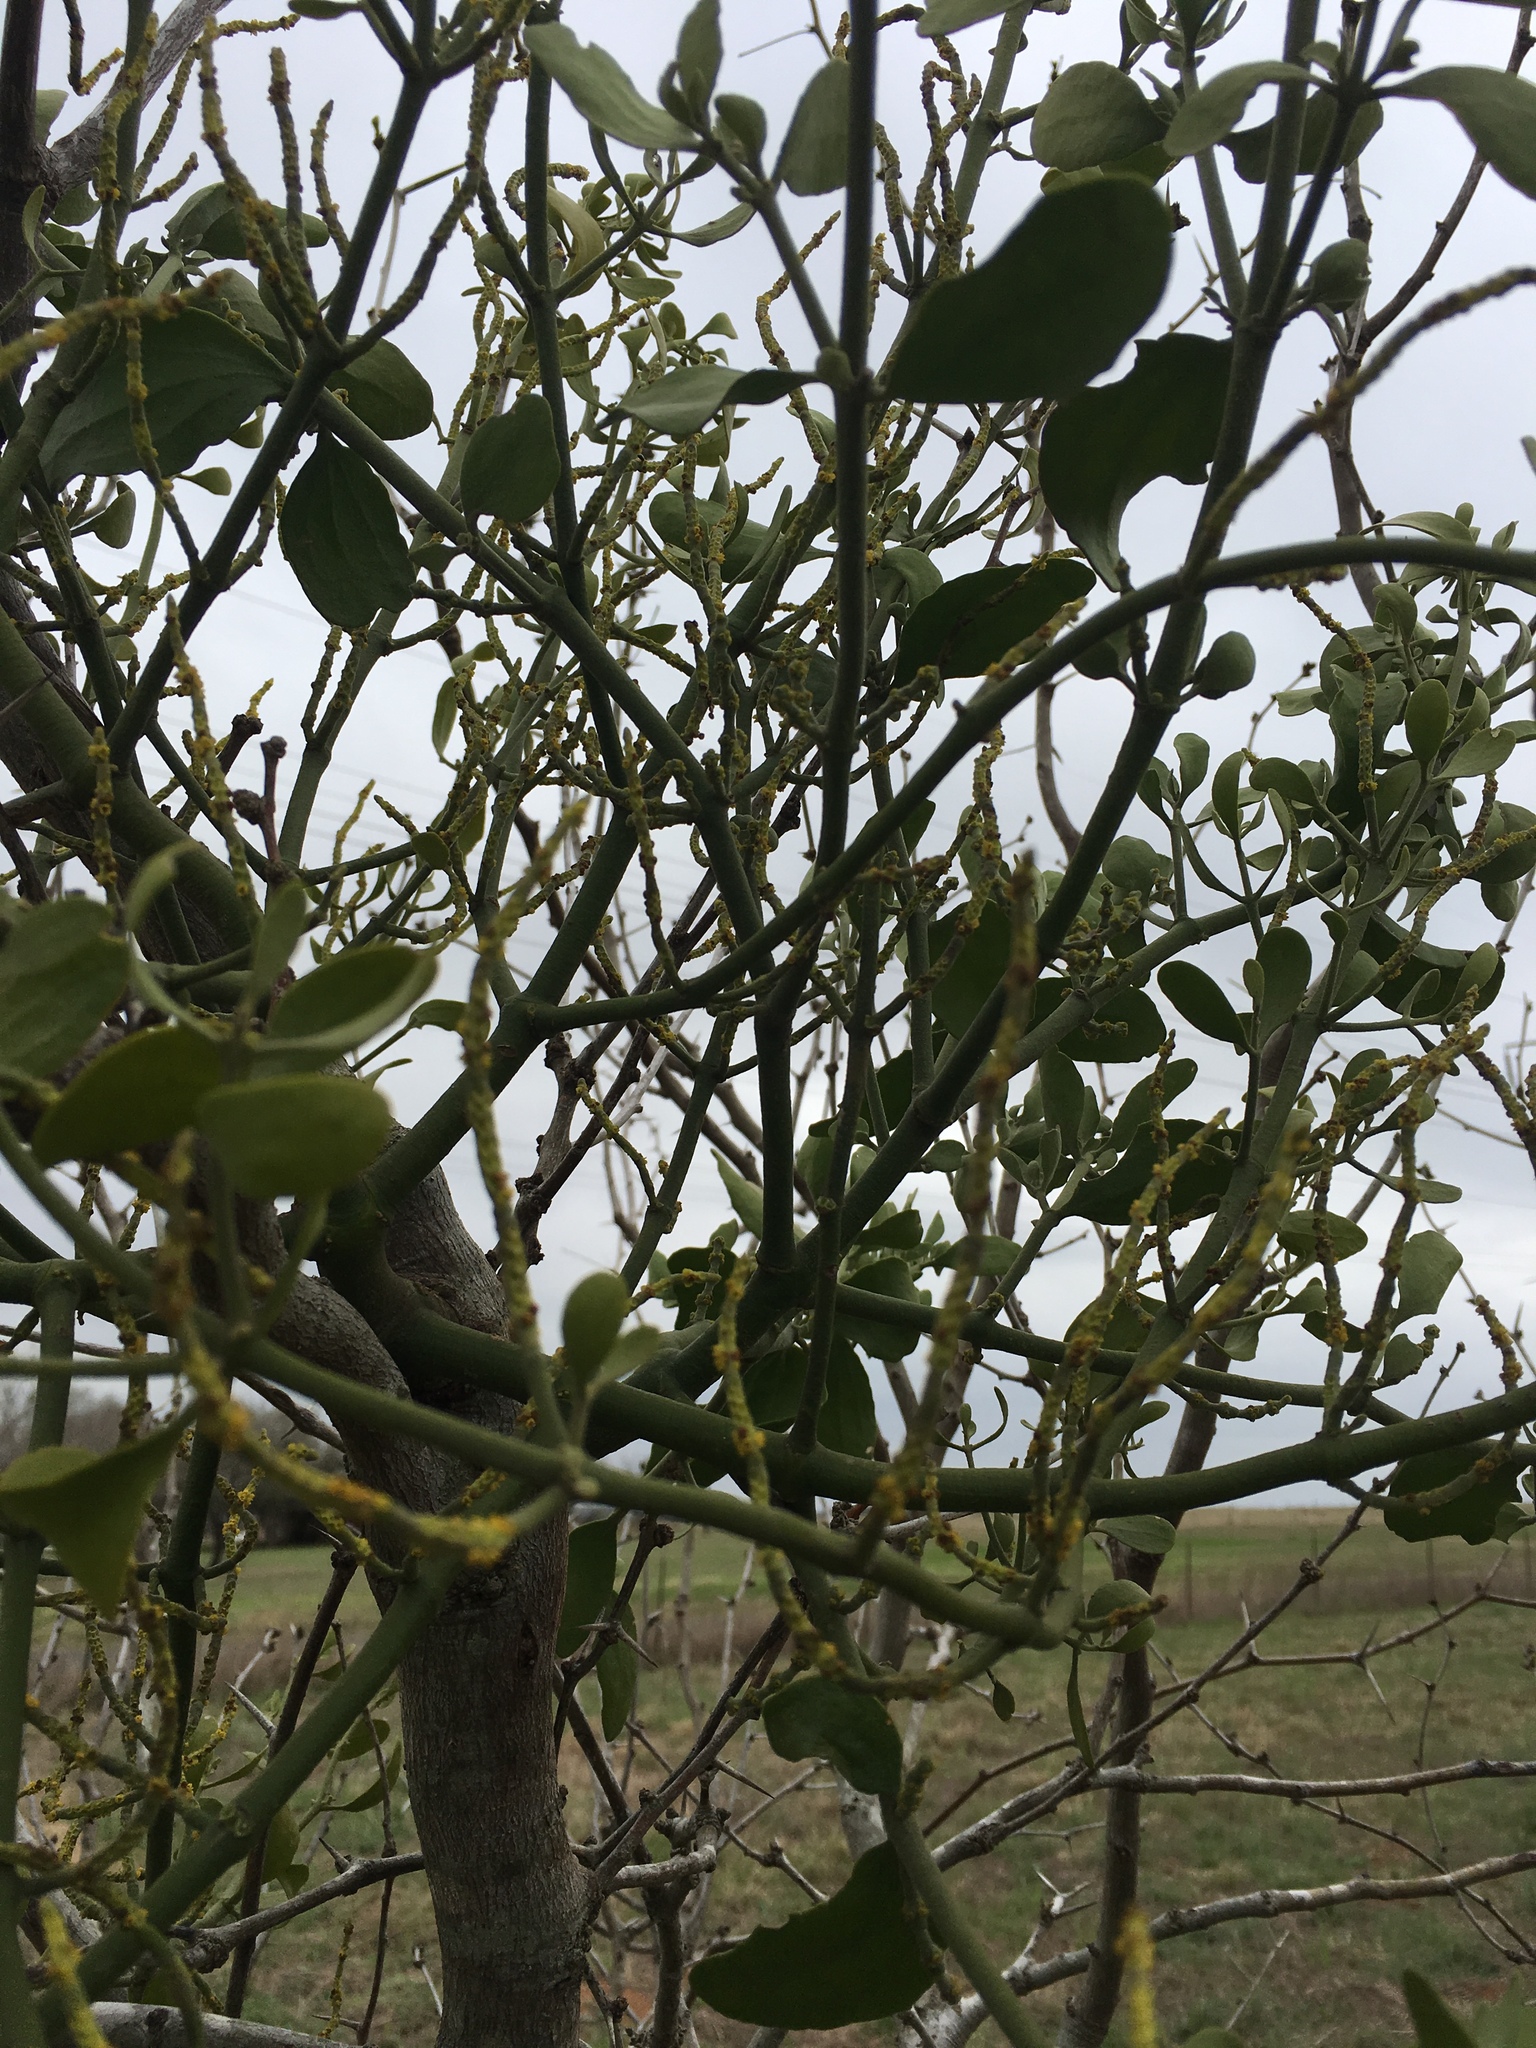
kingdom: Plantae
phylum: Tracheophyta
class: Magnoliopsida
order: Santalales
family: Viscaceae
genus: Phoradendron
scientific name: Phoradendron leucarpum
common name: Pacific mistletoe
